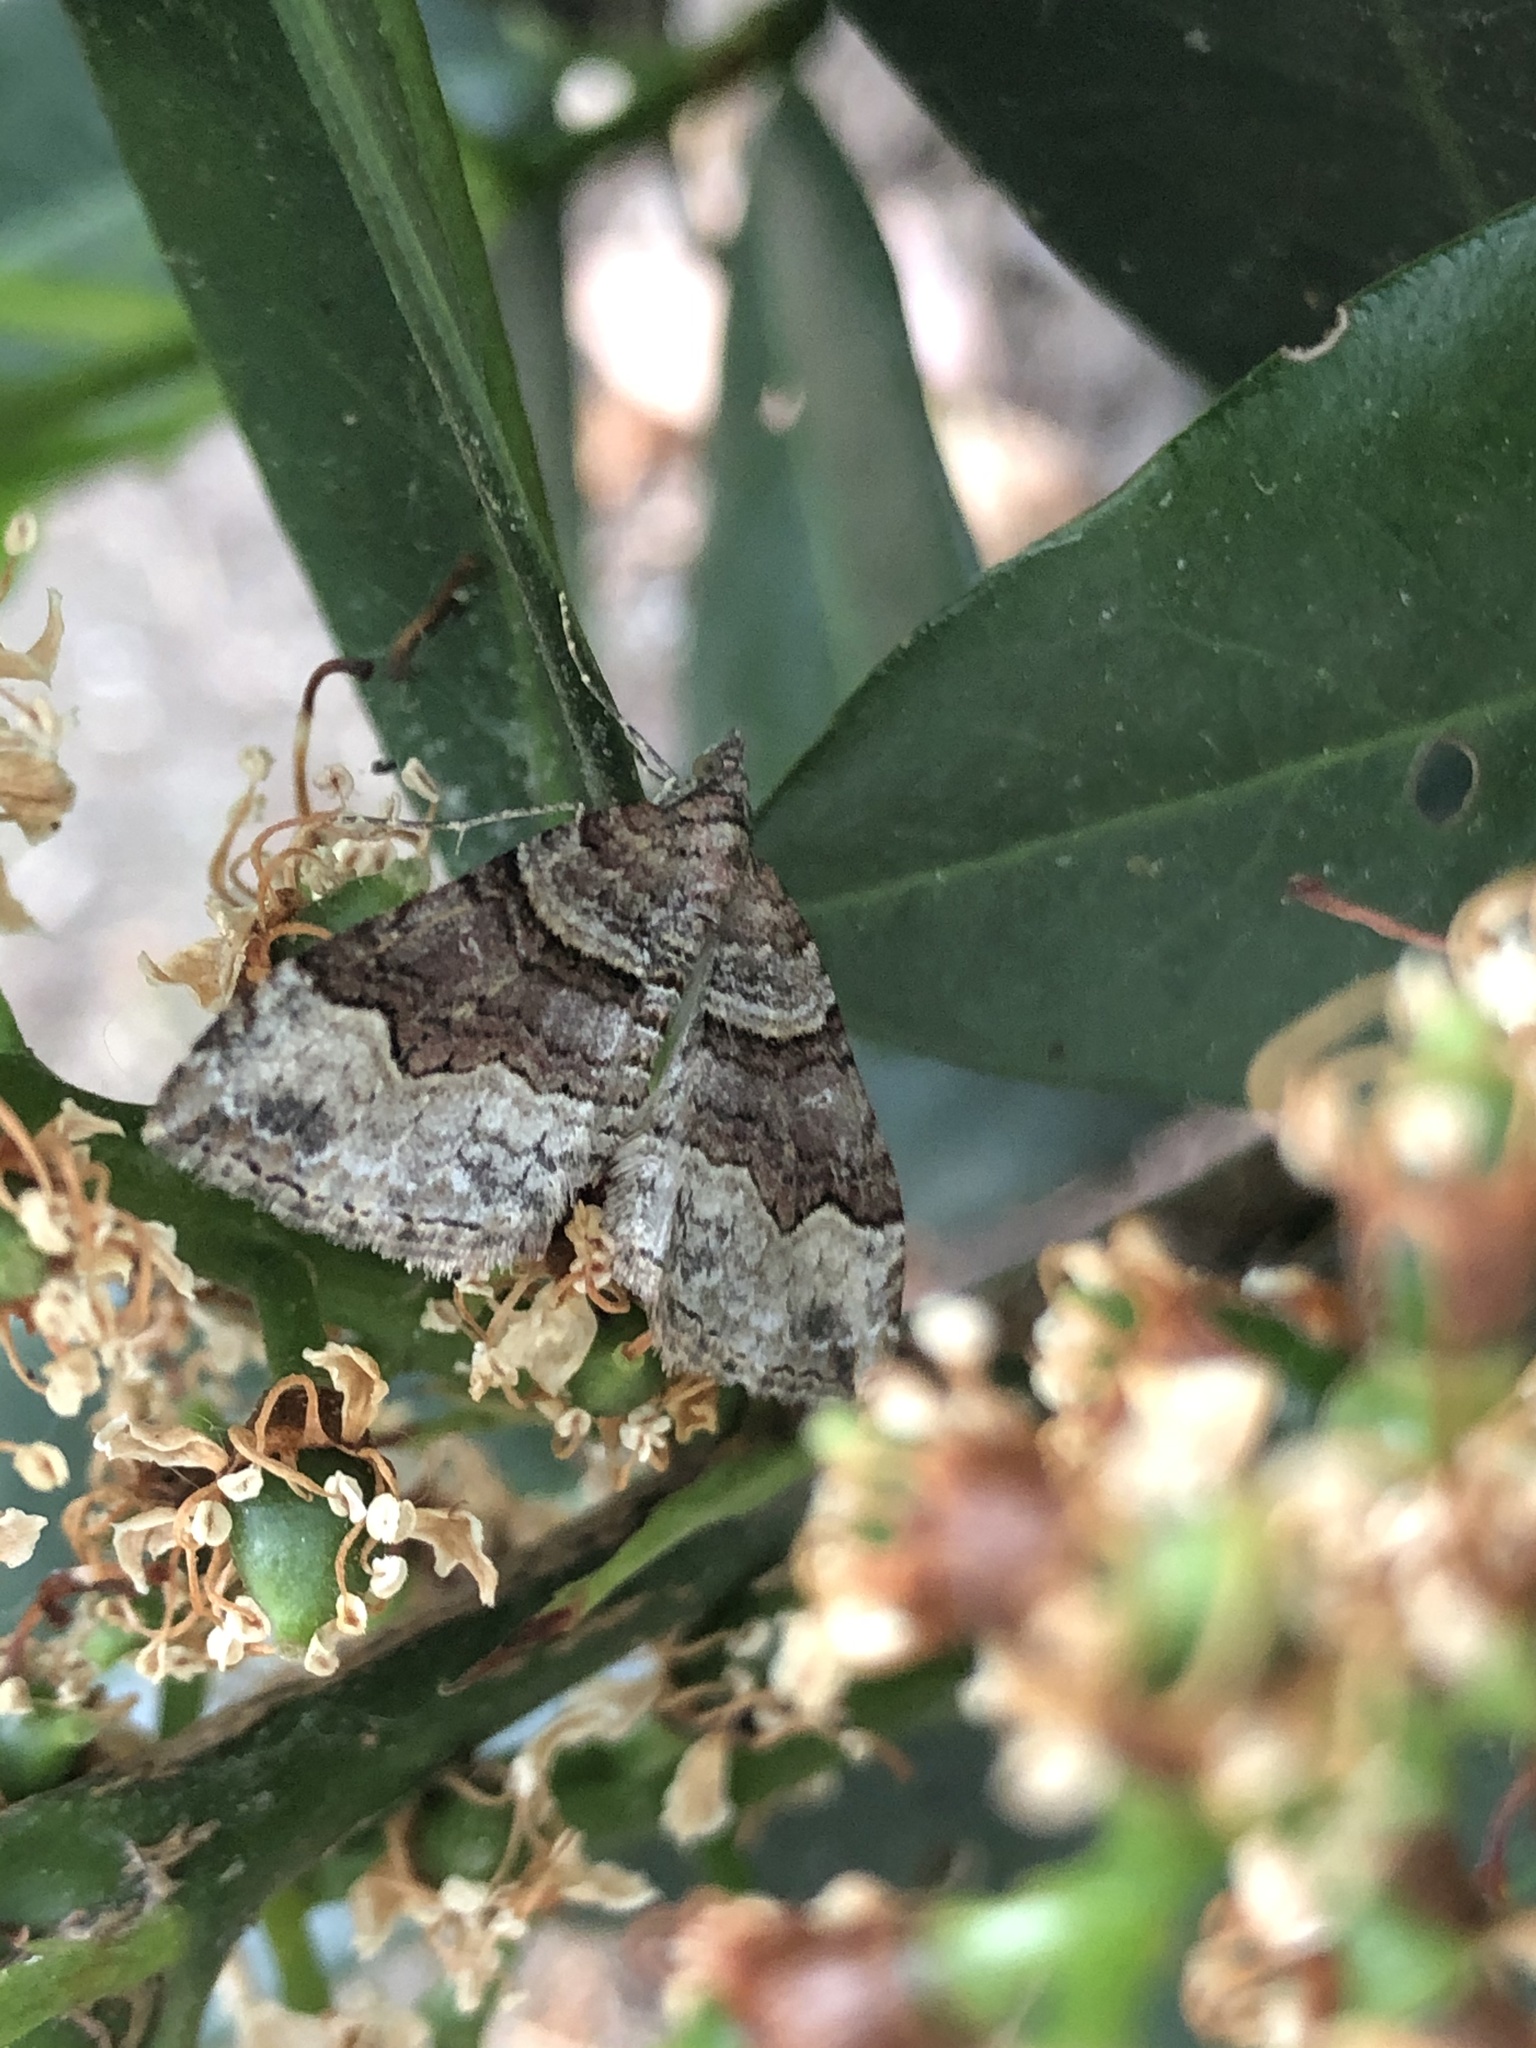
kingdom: Animalia
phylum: Arthropoda
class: Insecta
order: Lepidoptera
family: Geometridae
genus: Xanthorhoe
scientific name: Xanthorhoe defensaria
